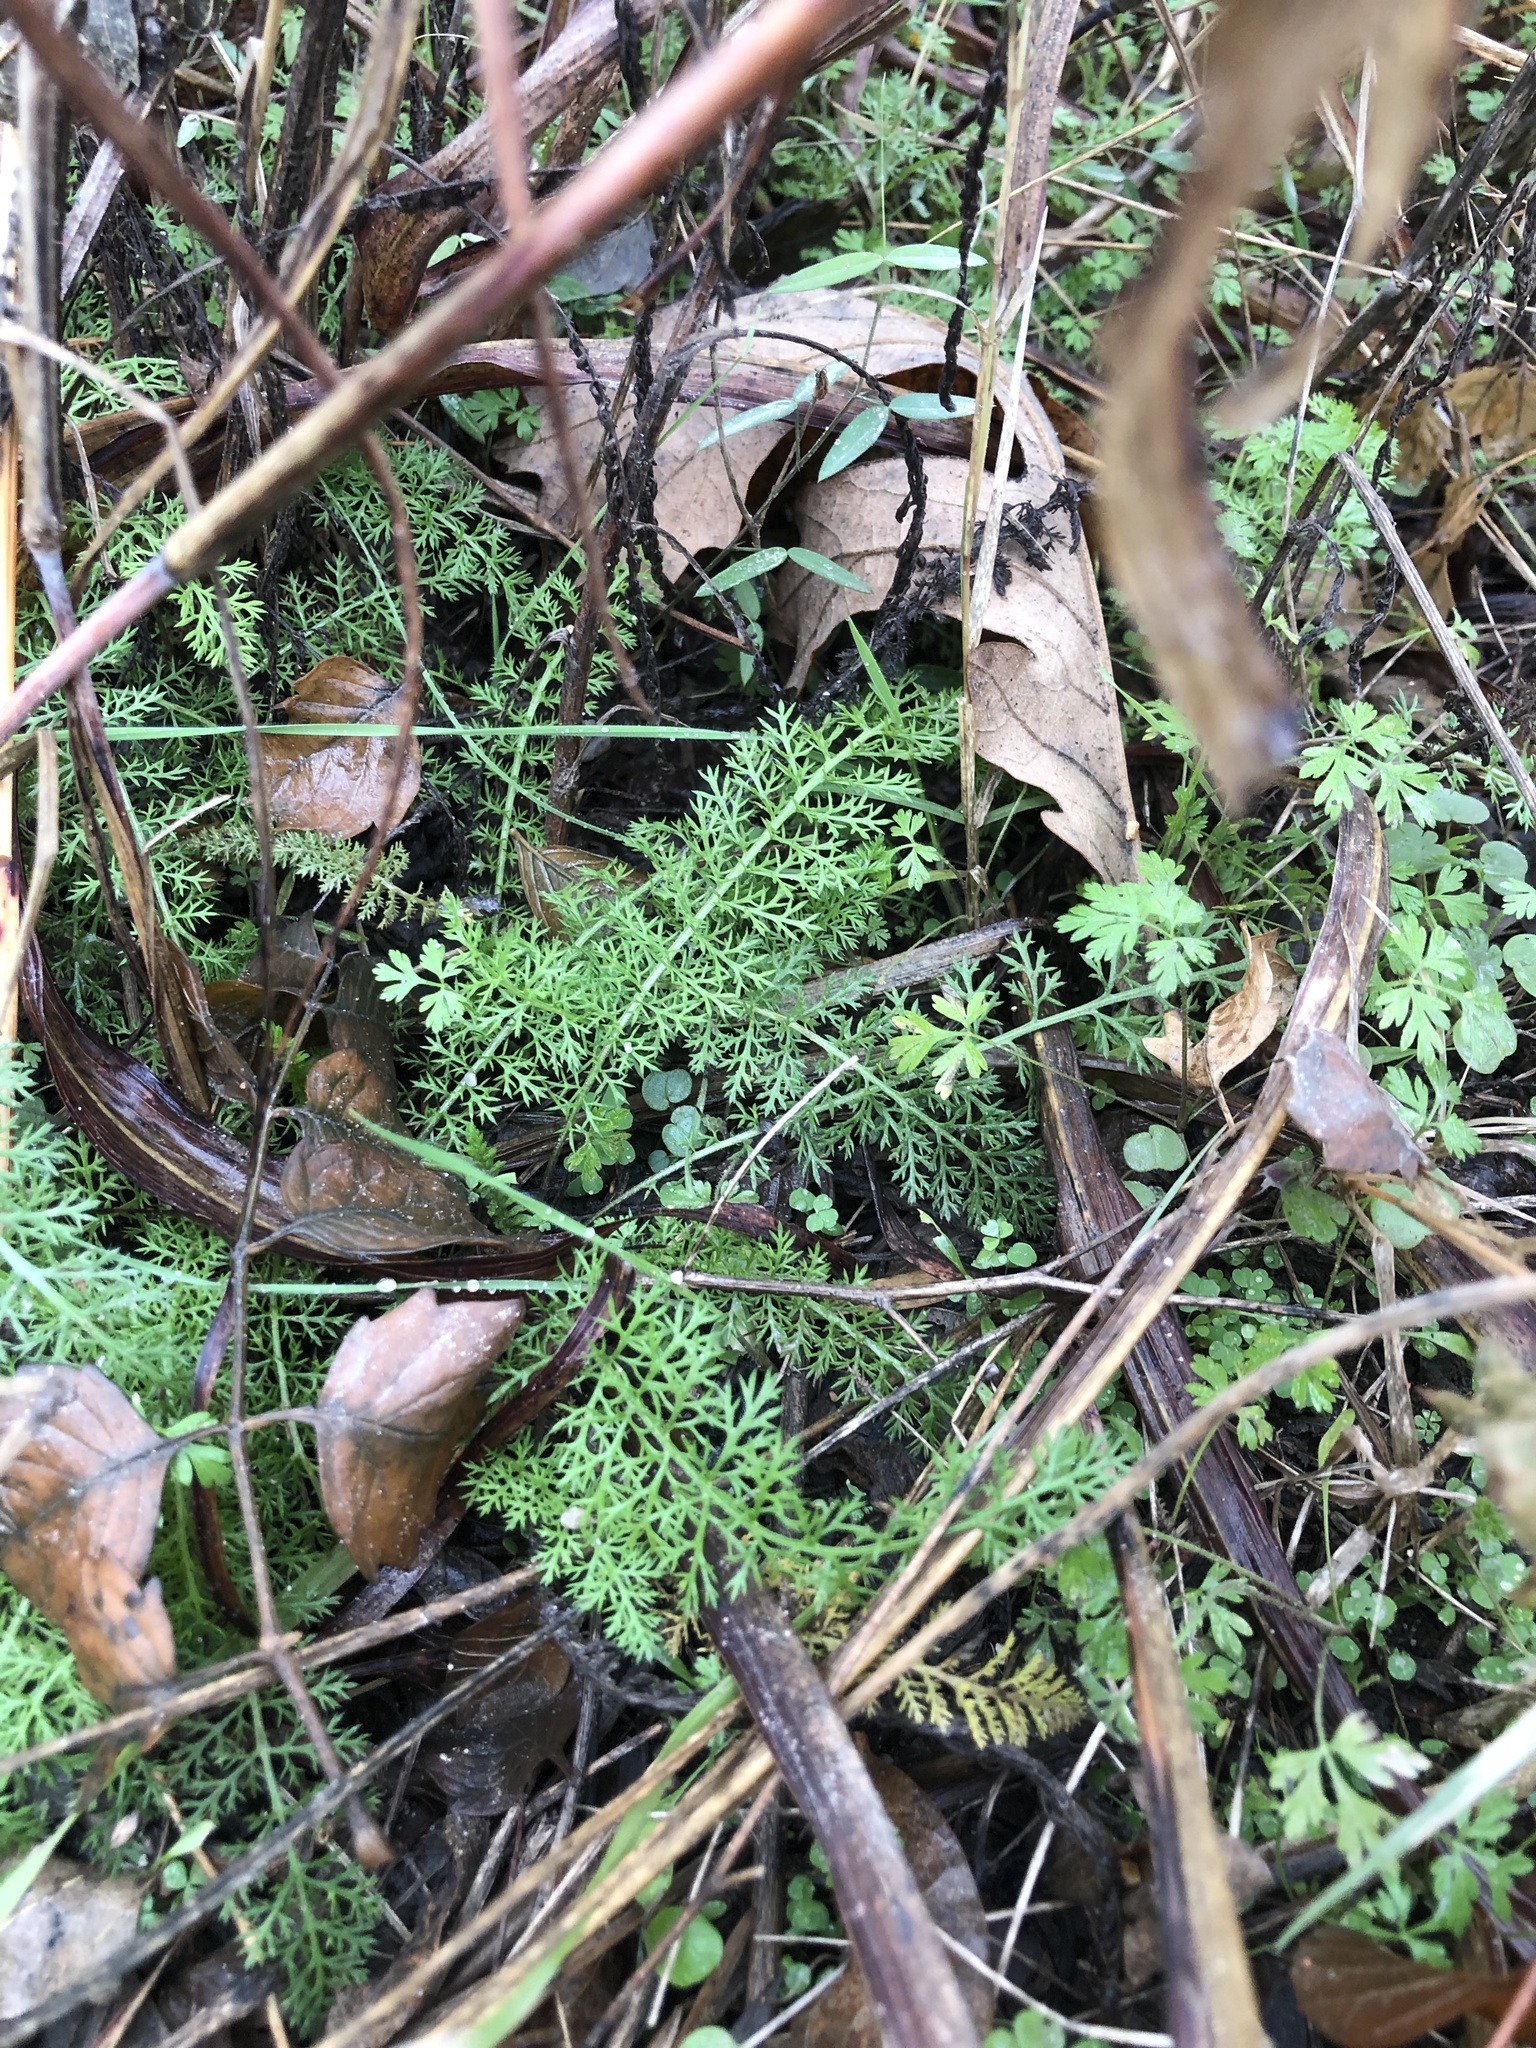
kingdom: Plantae
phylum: Tracheophyta
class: Magnoliopsida
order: Asterales
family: Asteraceae
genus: Achillea
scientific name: Achillea millefolium
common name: Yarrow
